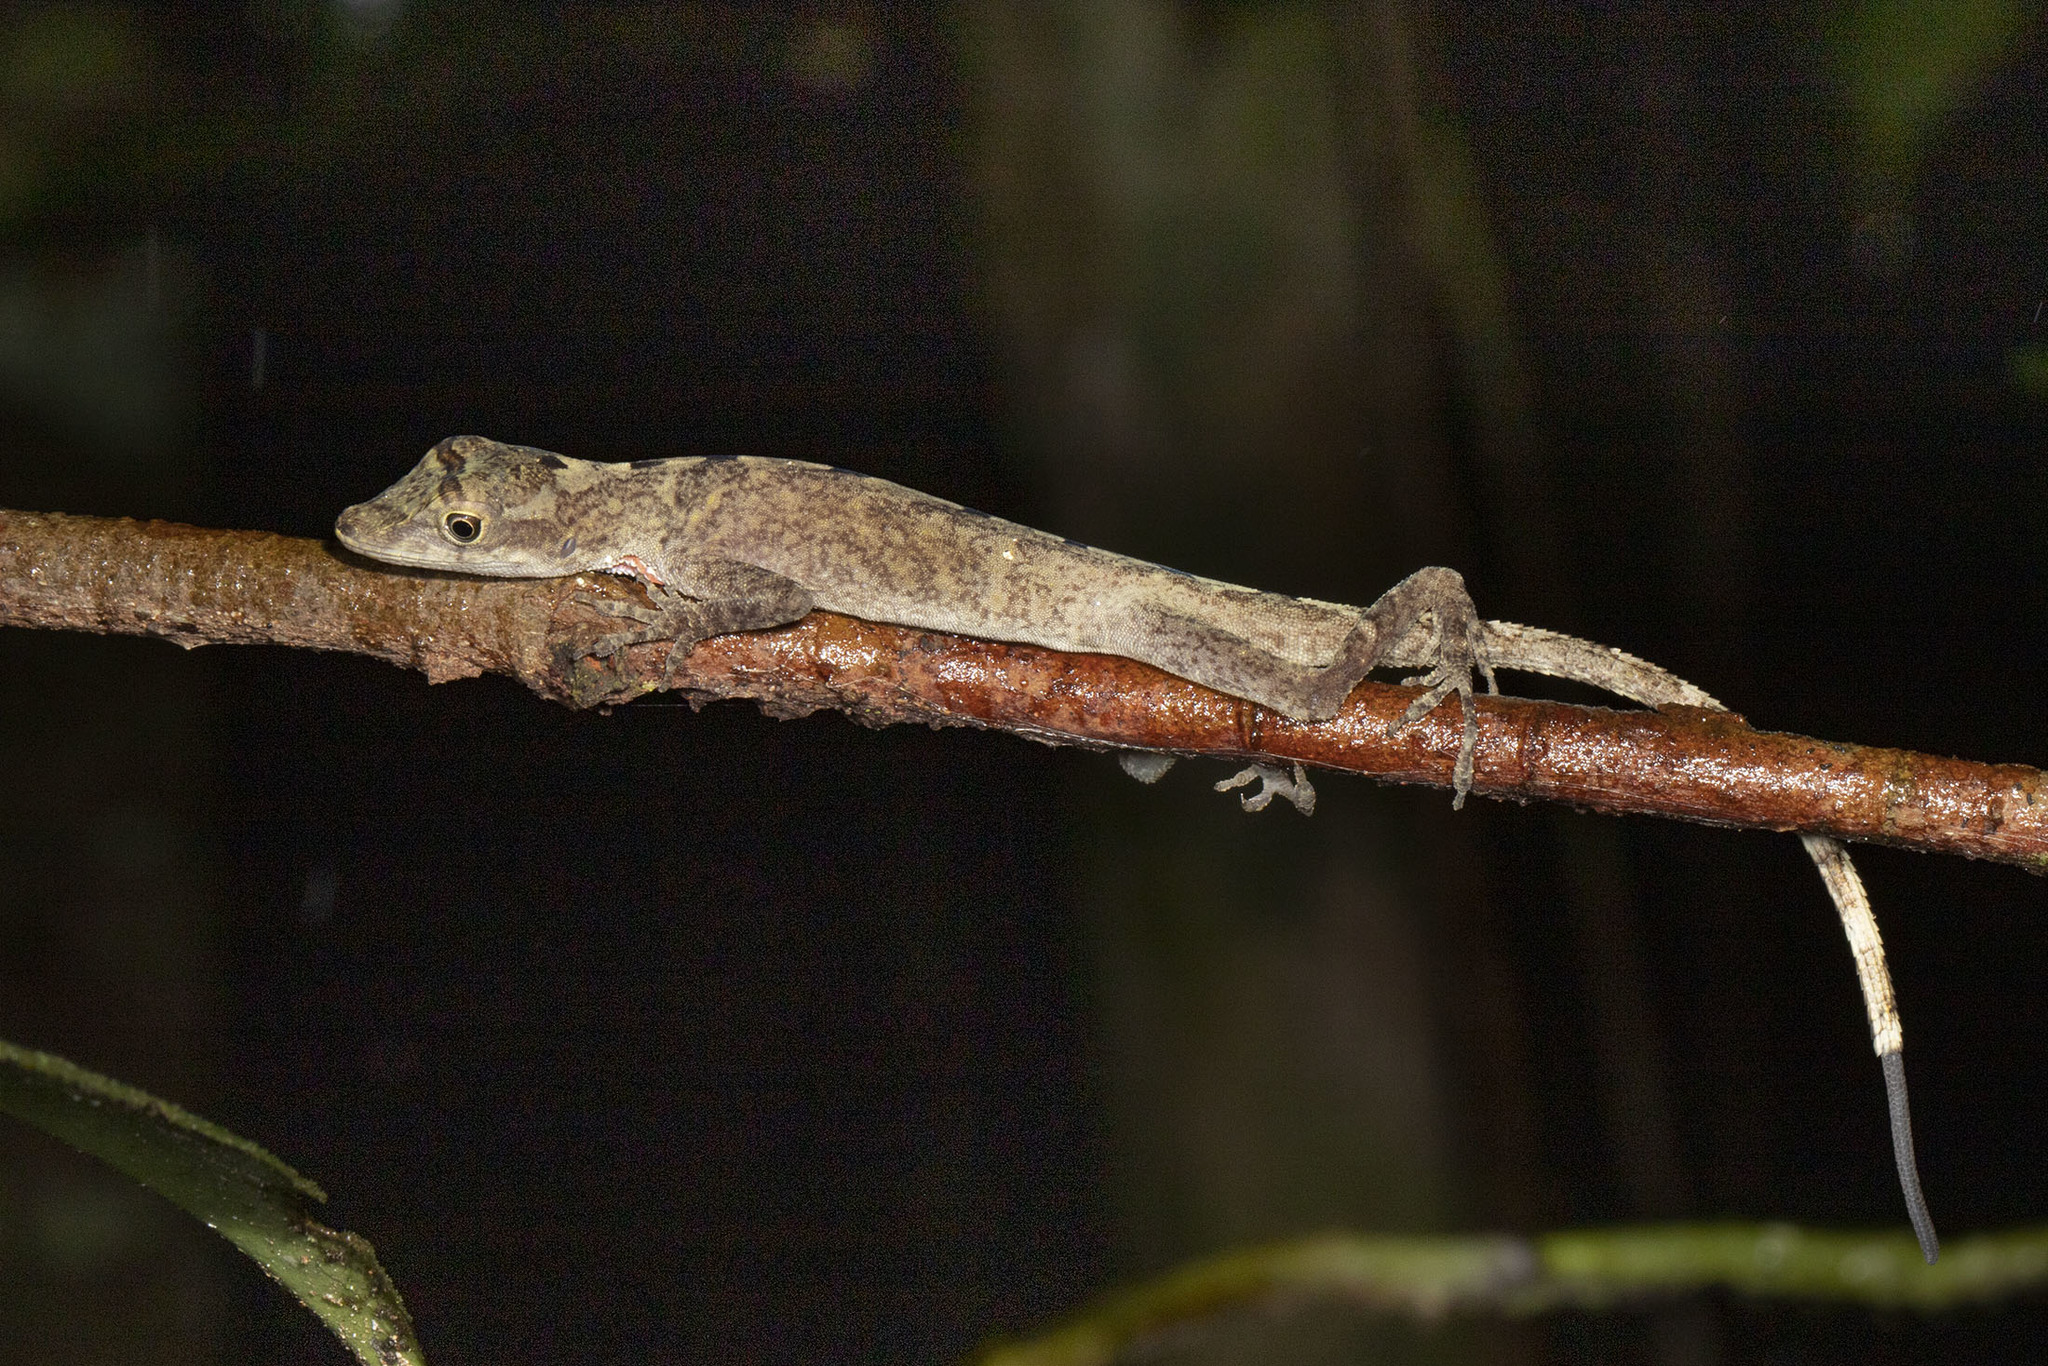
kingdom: Animalia
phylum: Chordata
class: Squamata
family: Dactyloidae
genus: Anolis
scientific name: Anolis fuscoauratus
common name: Brown-eared anole
